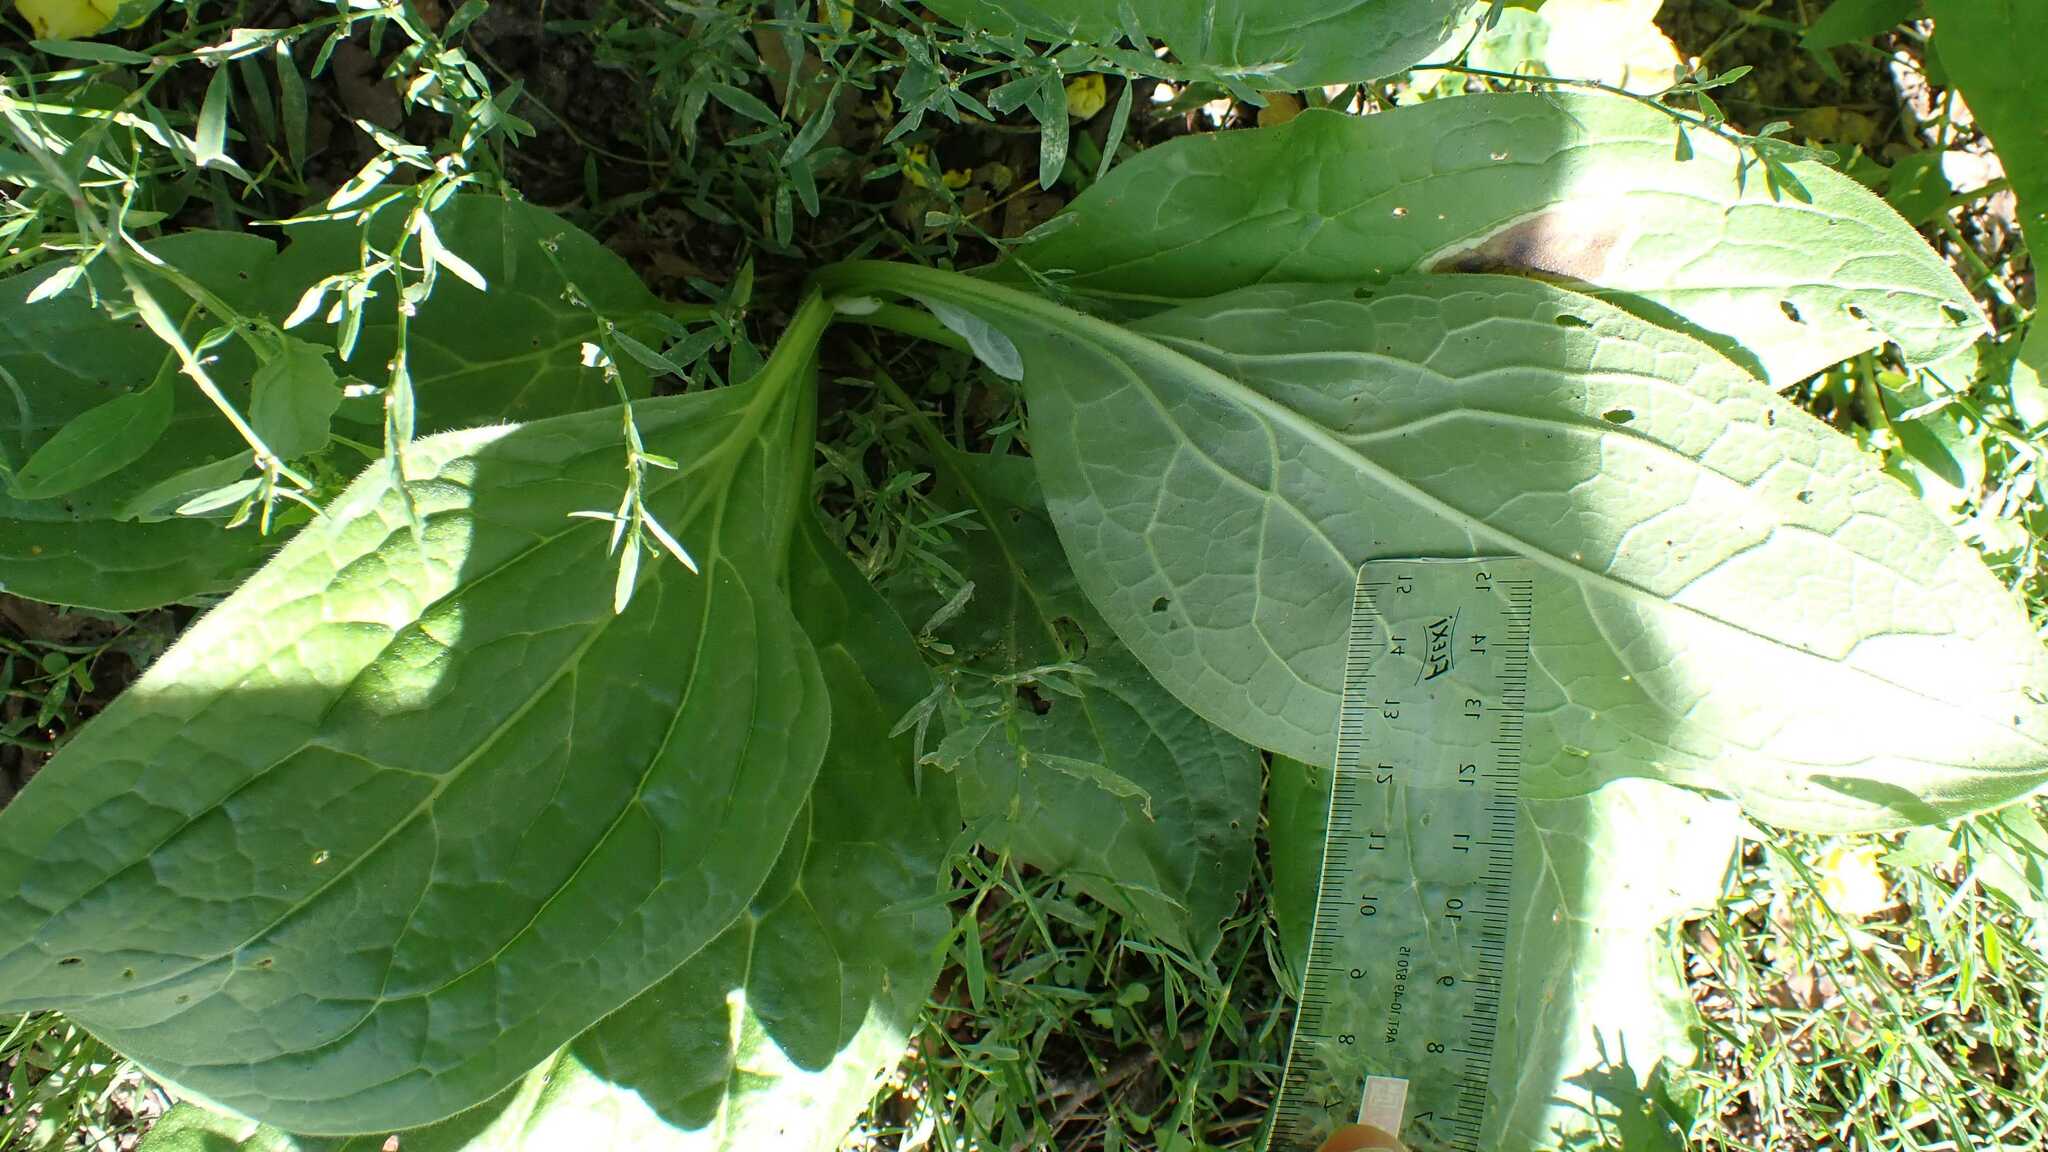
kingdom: Plantae
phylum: Tracheophyta
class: Magnoliopsida
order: Boraginales
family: Boraginaceae
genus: Cynoglossum
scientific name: Cynoglossum officinale
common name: Hound's-tongue
